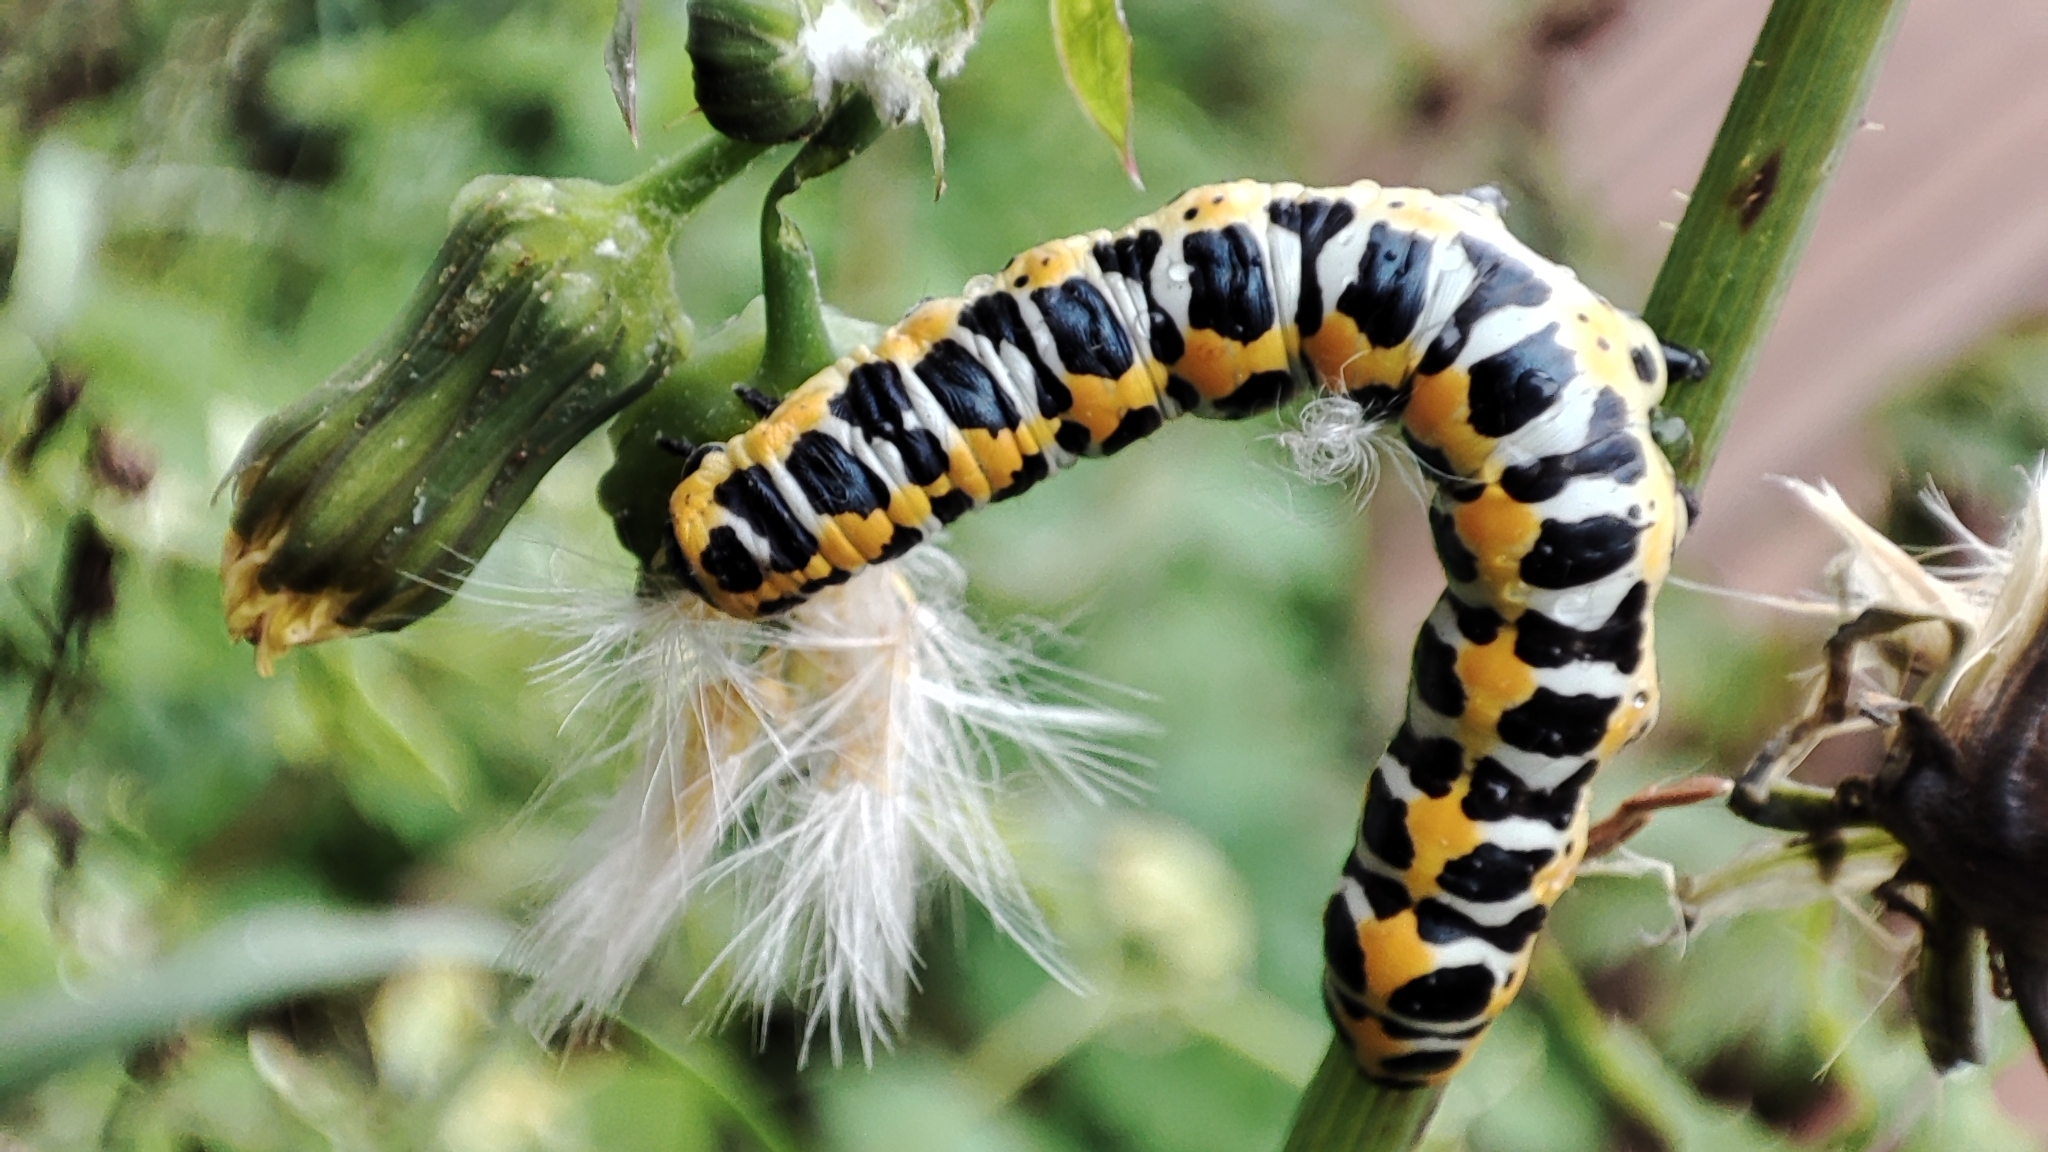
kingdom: Animalia
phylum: Arthropoda
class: Insecta
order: Lepidoptera
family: Noctuidae
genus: Cucullia
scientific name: Cucullia pustulata
